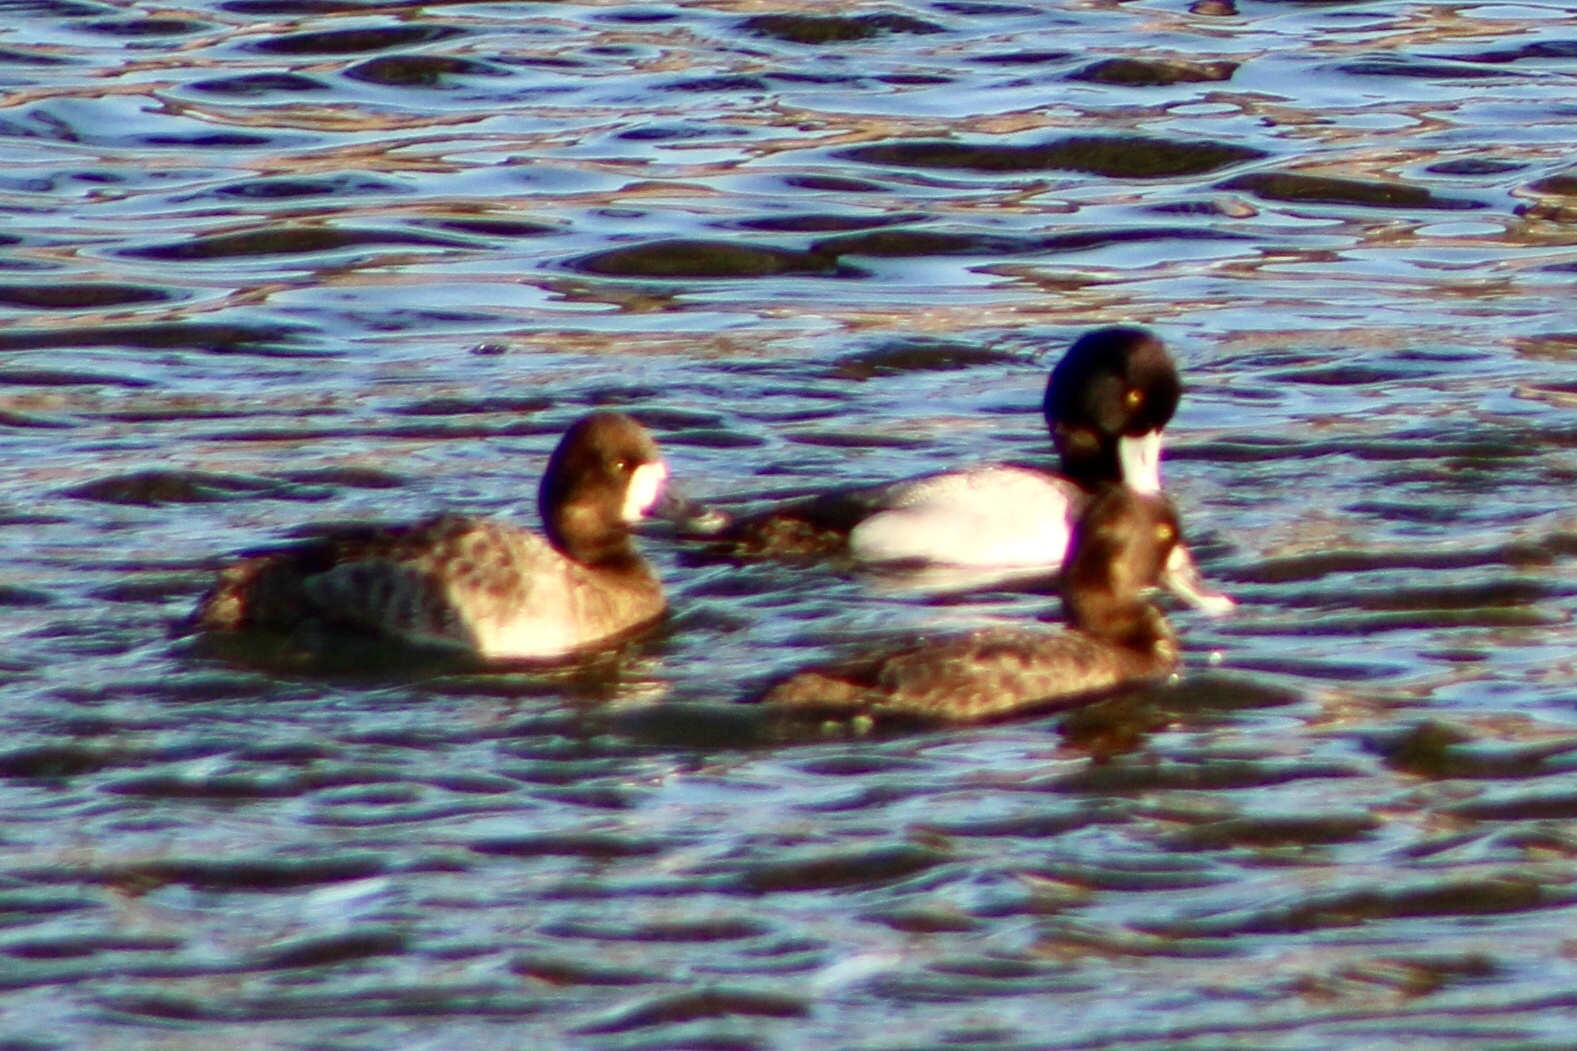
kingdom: Animalia
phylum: Chordata
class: Aves
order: Anseriformes
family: Anatidae
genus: Aythya
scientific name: Aythya affinis
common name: Lesser scaup
